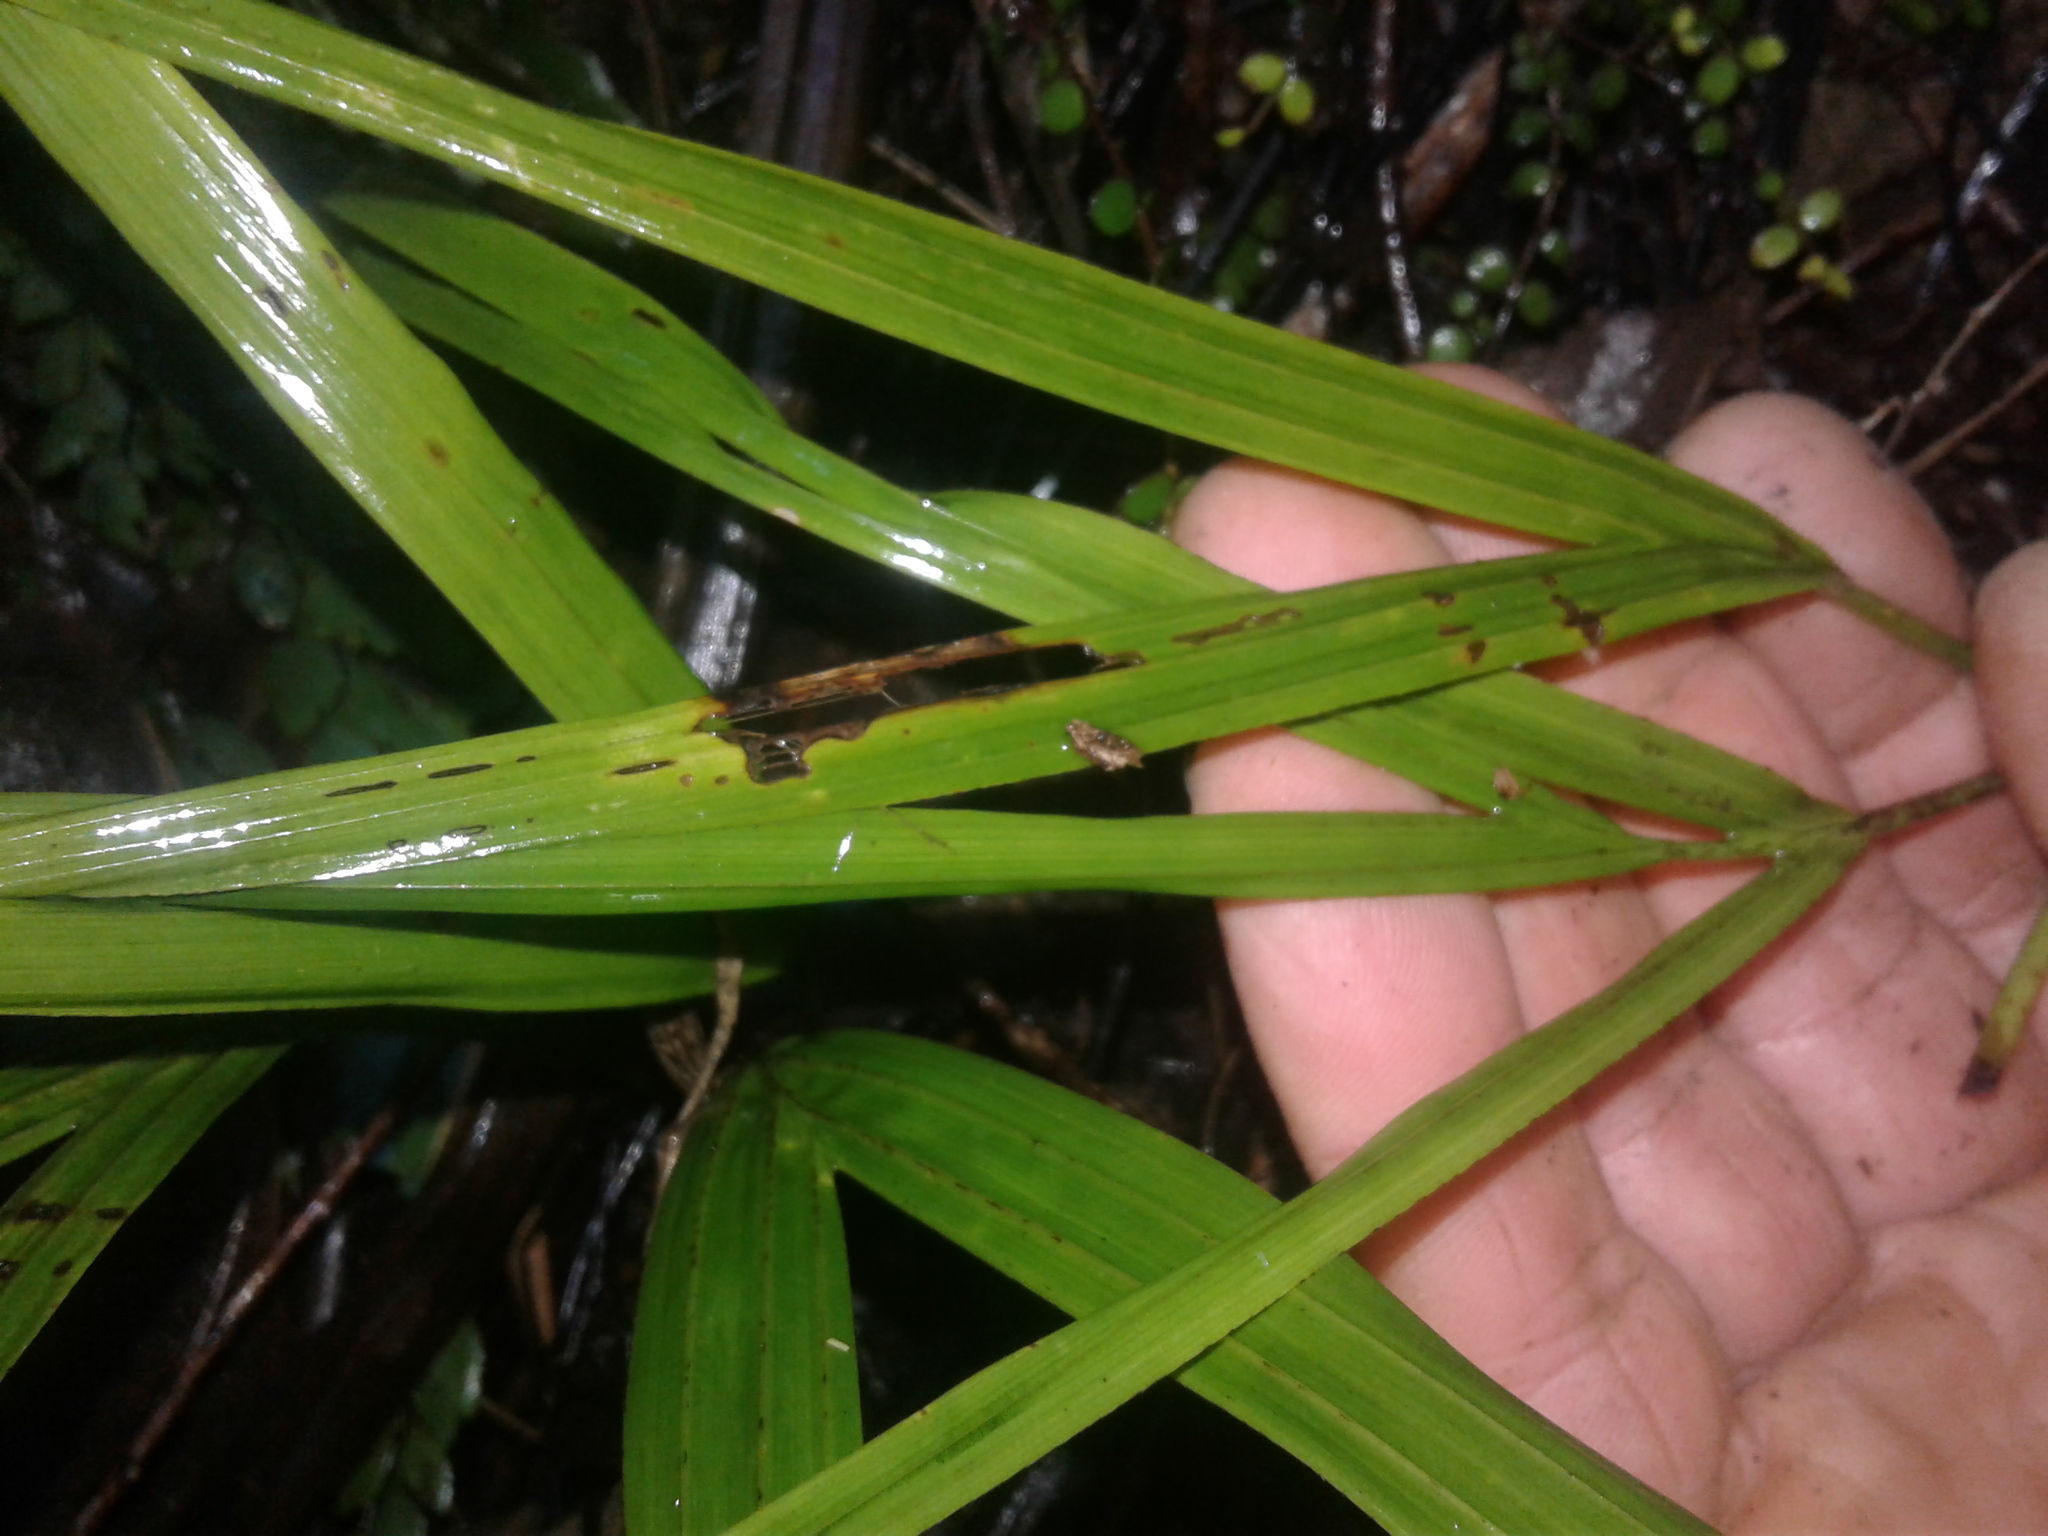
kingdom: Plantae
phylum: Tracheophyta
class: Liliopsida
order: Arecales
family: Arecaceae
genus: Rhopalostylis
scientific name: Rhopalostylis sapida
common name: Feather-duster palm
